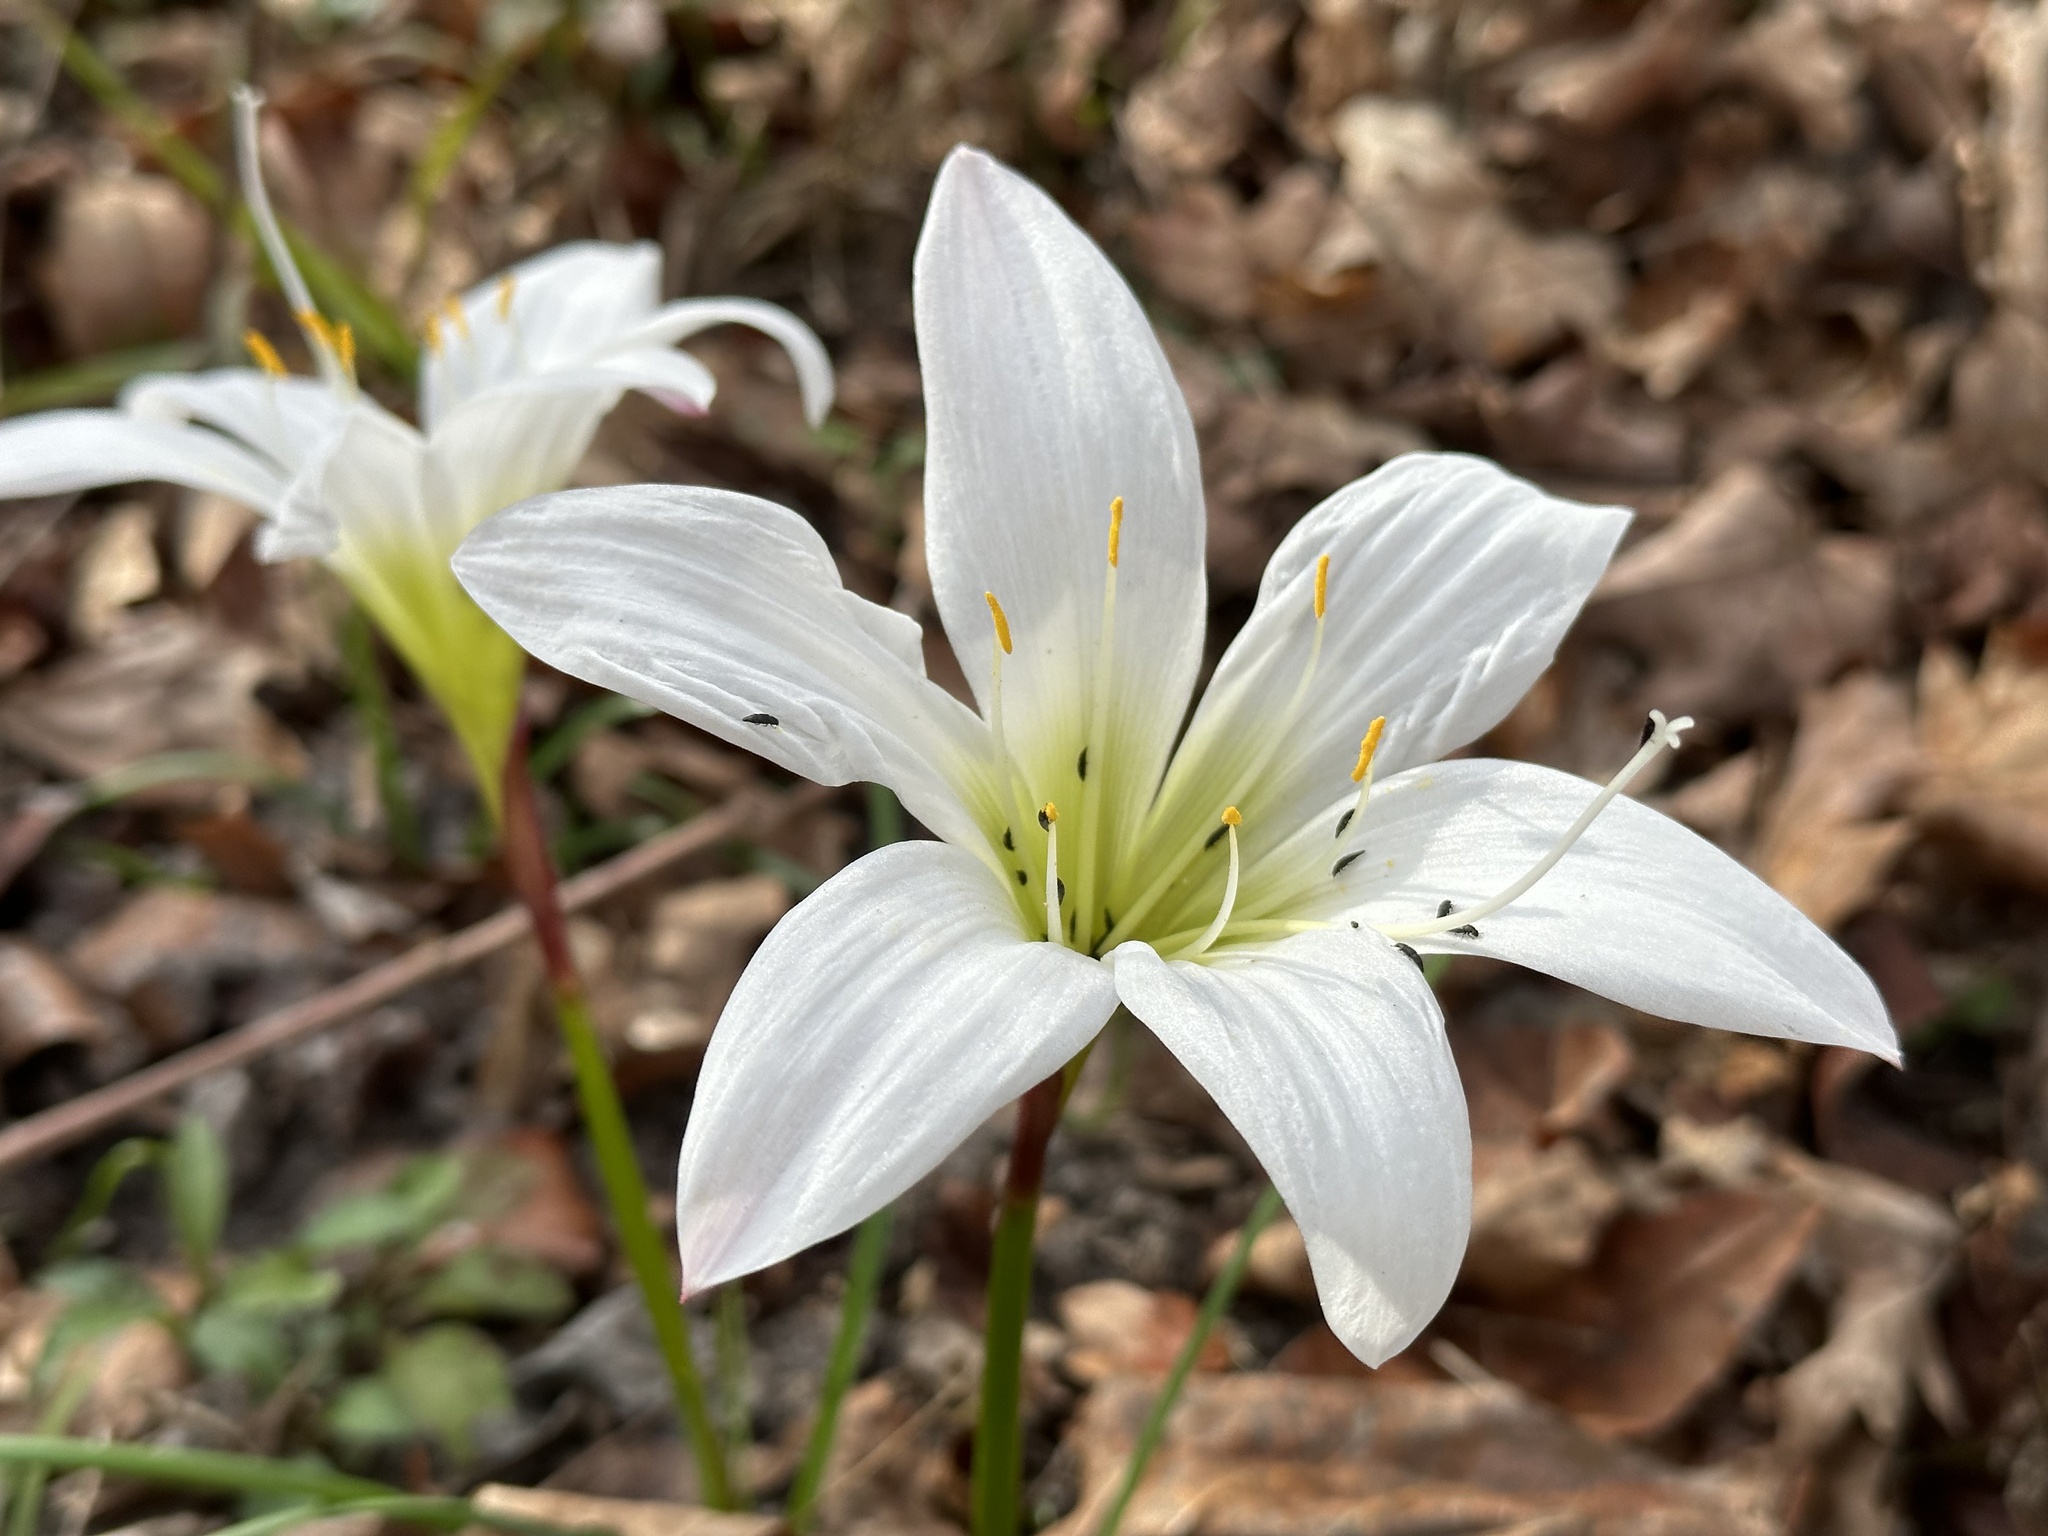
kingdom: Plantae
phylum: Tracheophyta
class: Liliopsida
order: Asparagales
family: Amaryllidaceae
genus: Zephyranthes
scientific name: Zephyranthes atamasco
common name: Atamasco lily
